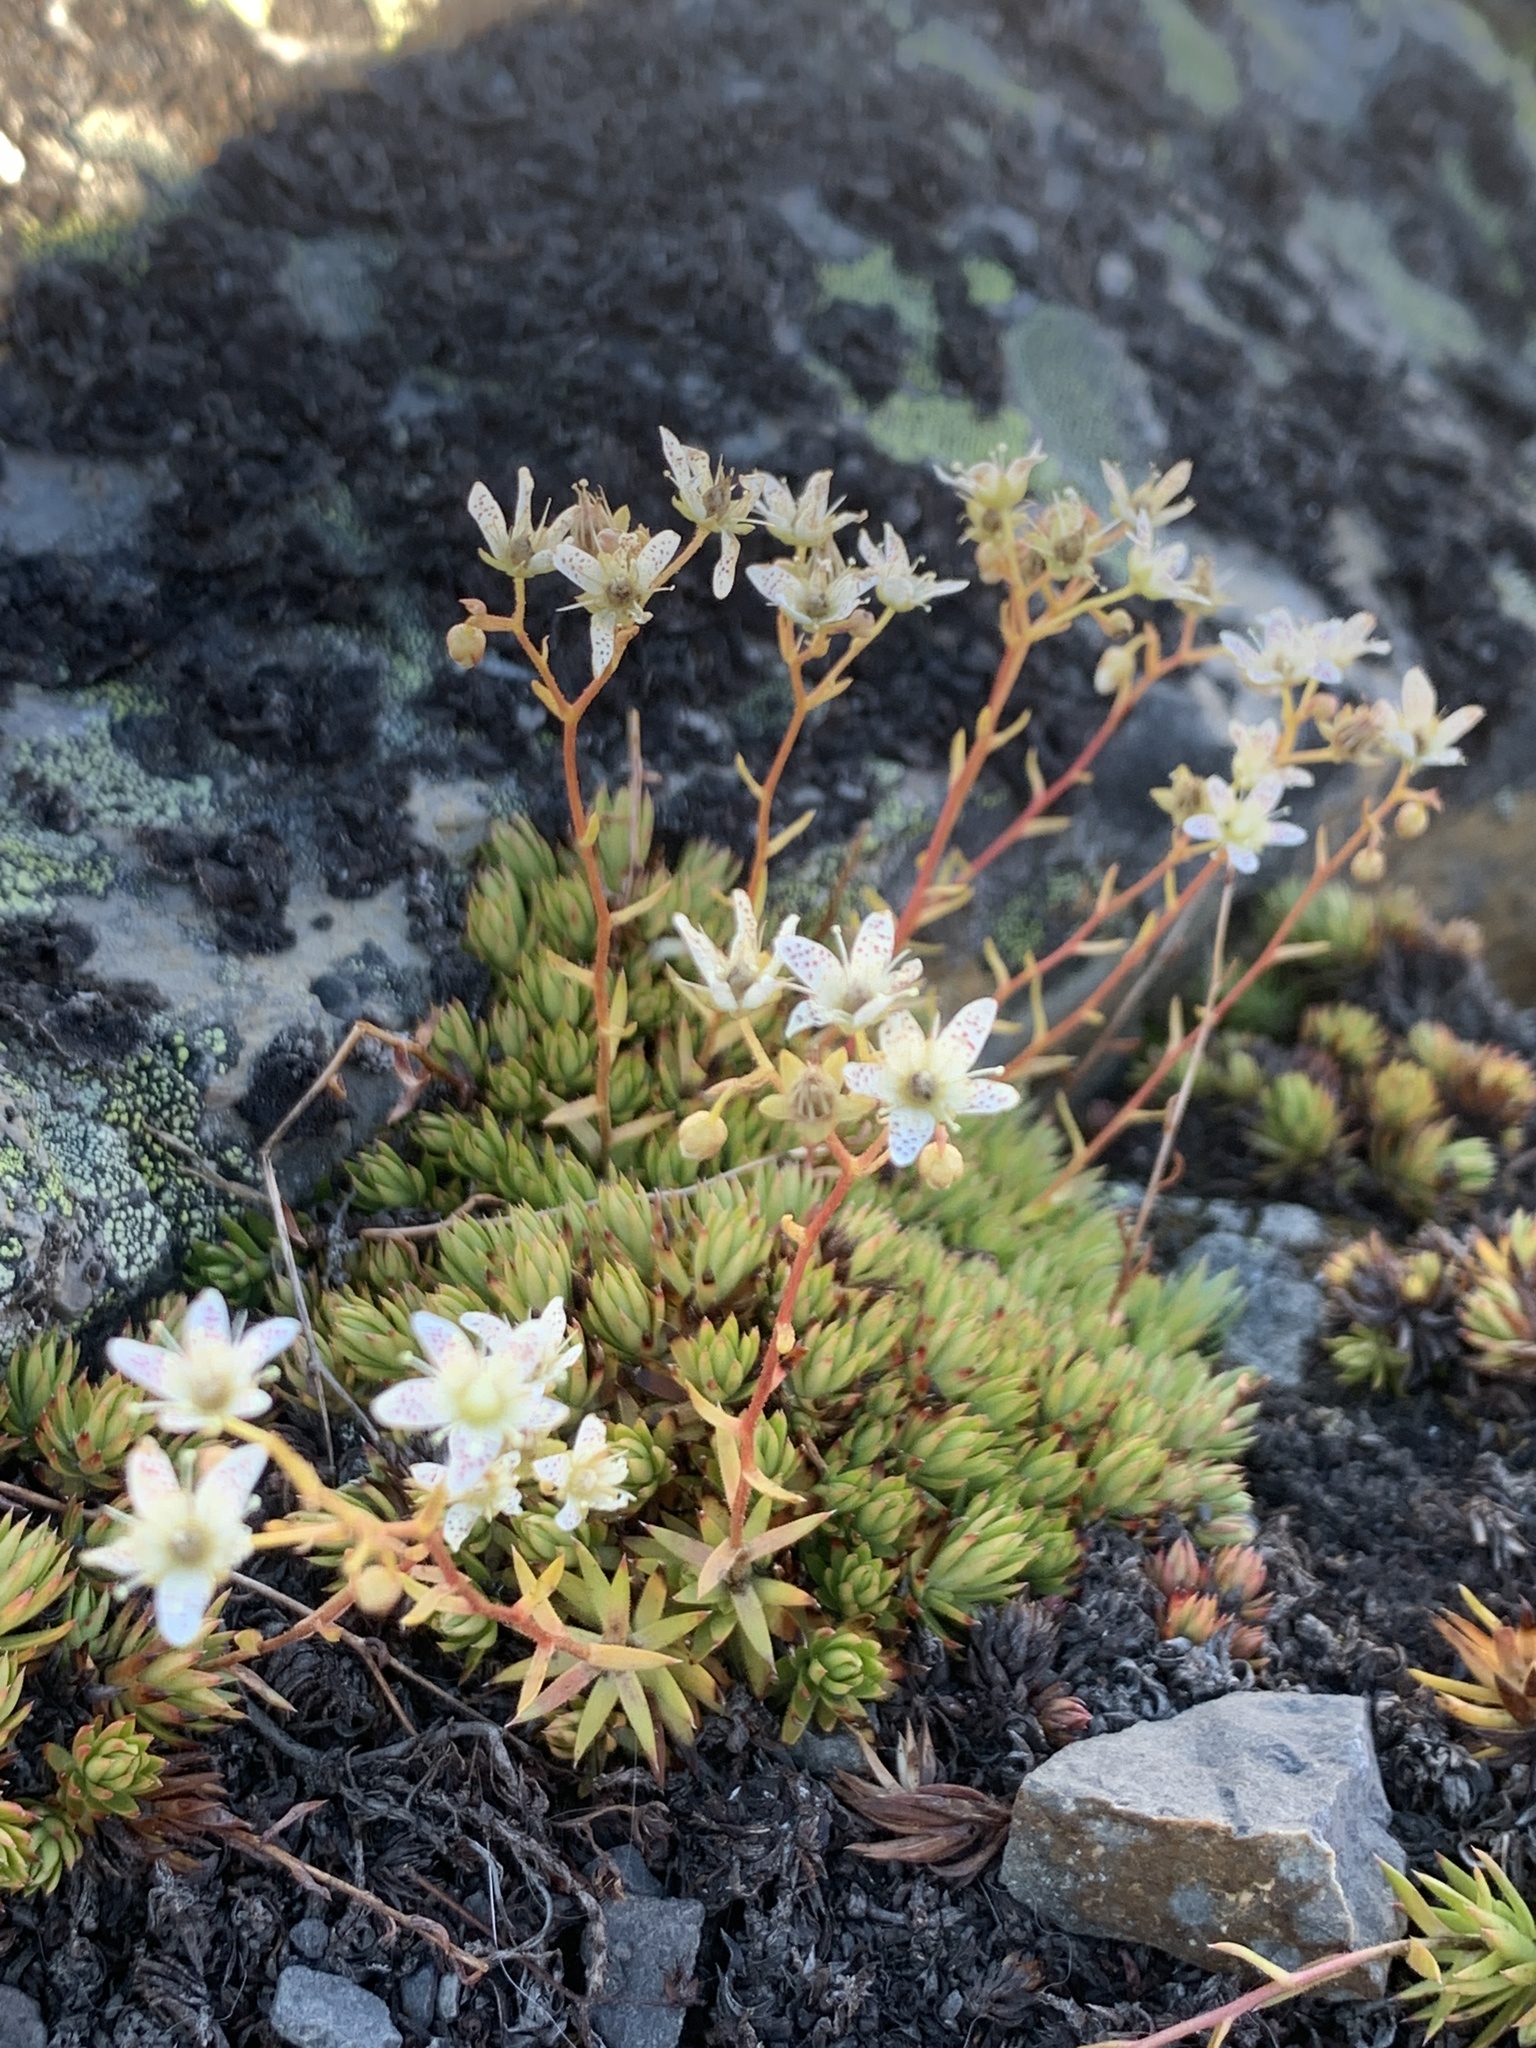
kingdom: Plantae
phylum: Tracheophyta
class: Magnoliopsida
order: Saxifragales
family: Saxifragaceae
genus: Saxifraga
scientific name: Saxifraga bronchialis
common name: Matted saxifrage
